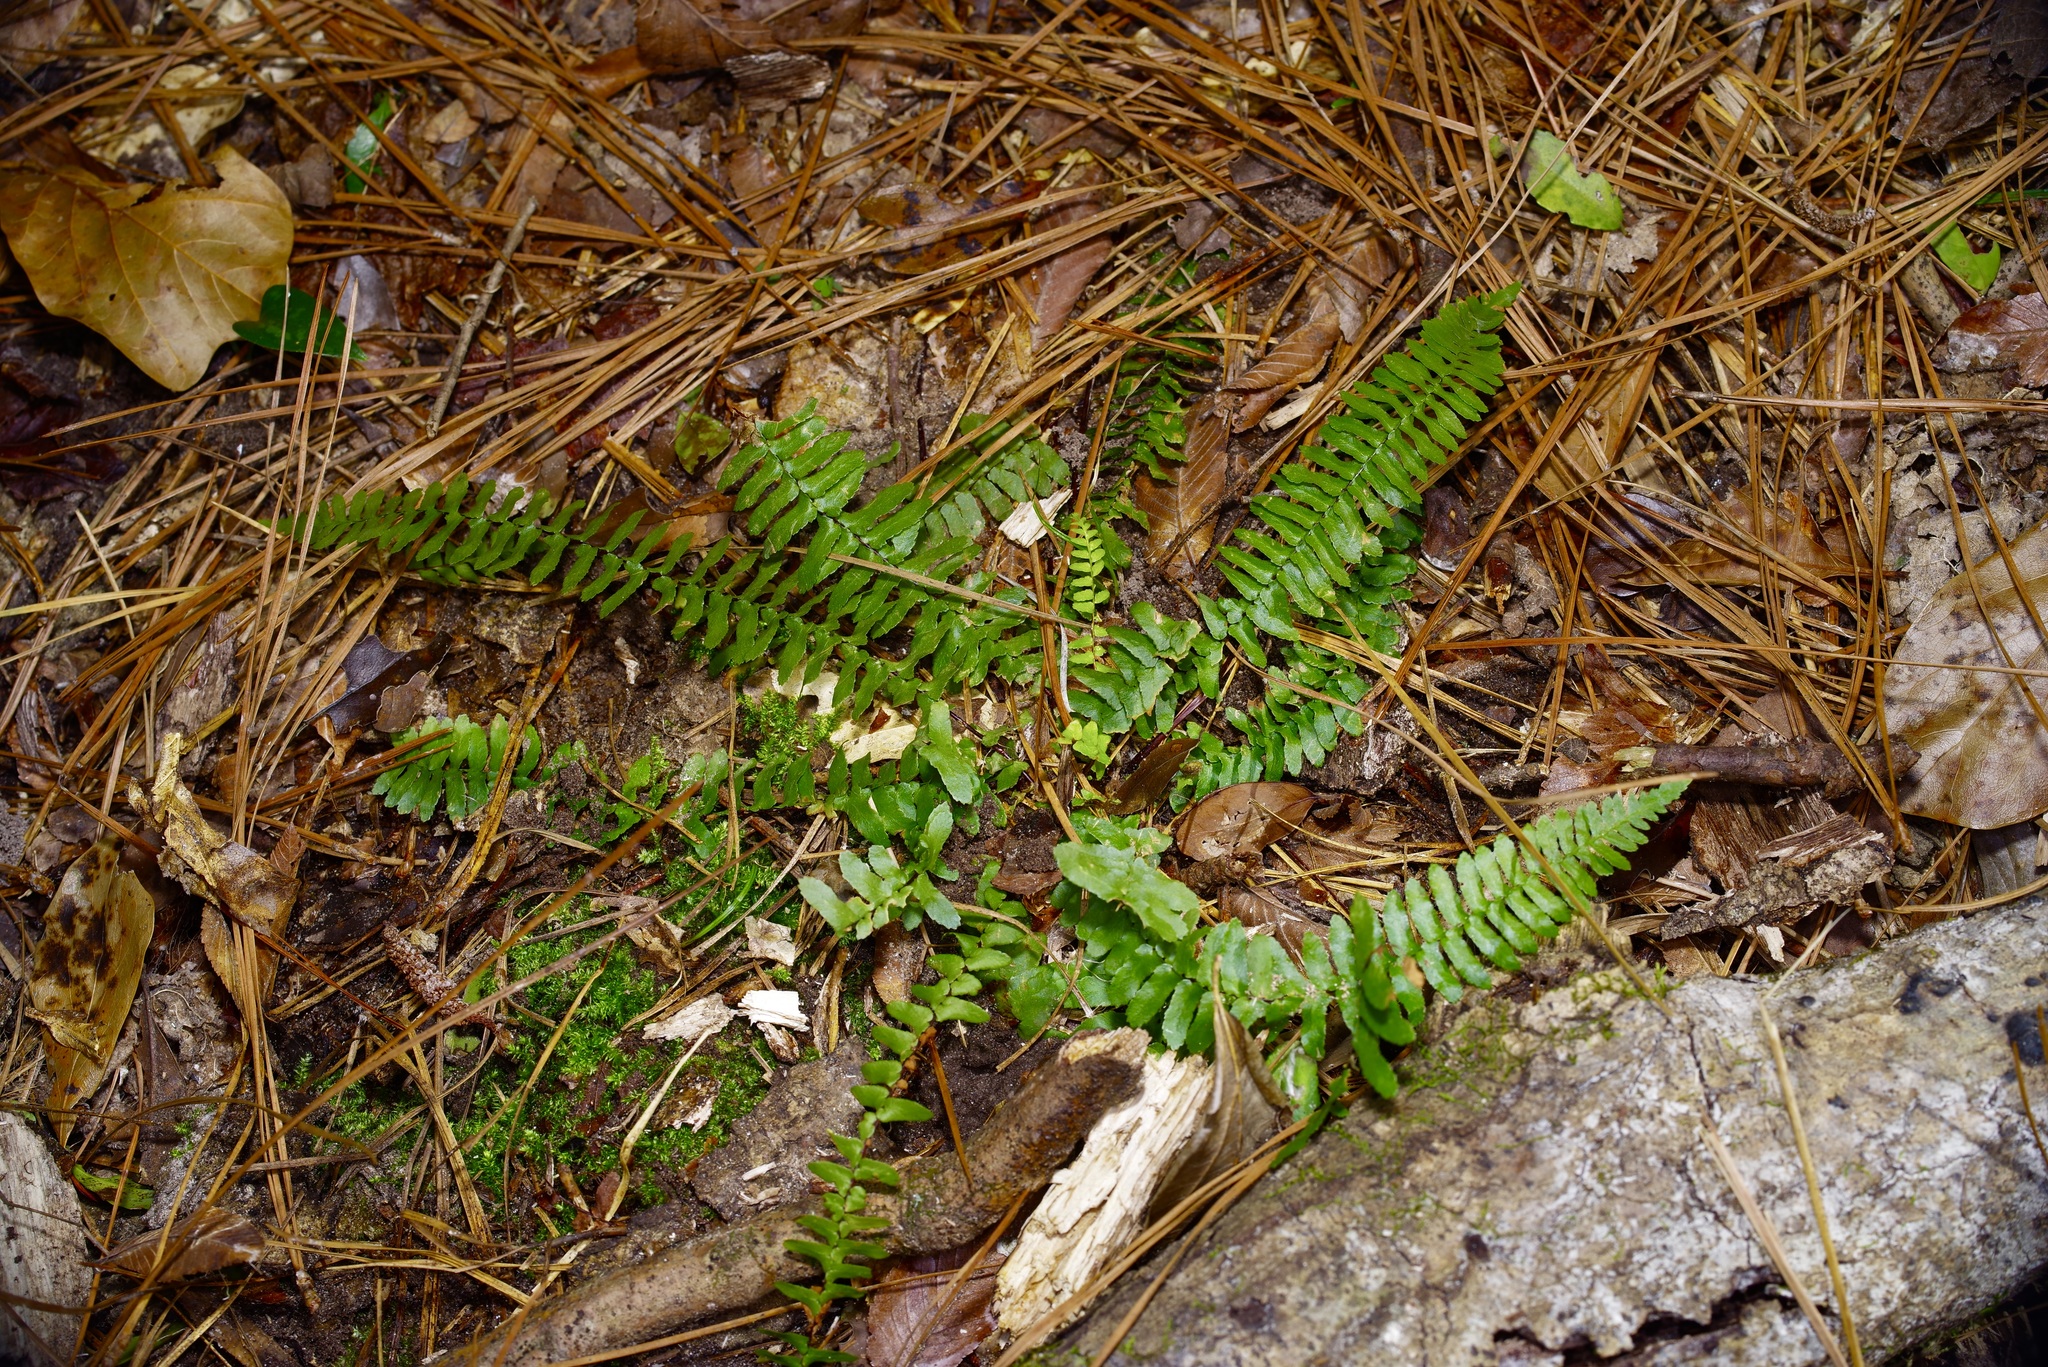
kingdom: Plantae
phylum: Tracheophyta
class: Polypodiopsida
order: Polypodiales
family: Aspleniaceae
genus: Asplenium
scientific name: Asplenium platyneuron
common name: Ebony spleenwort
